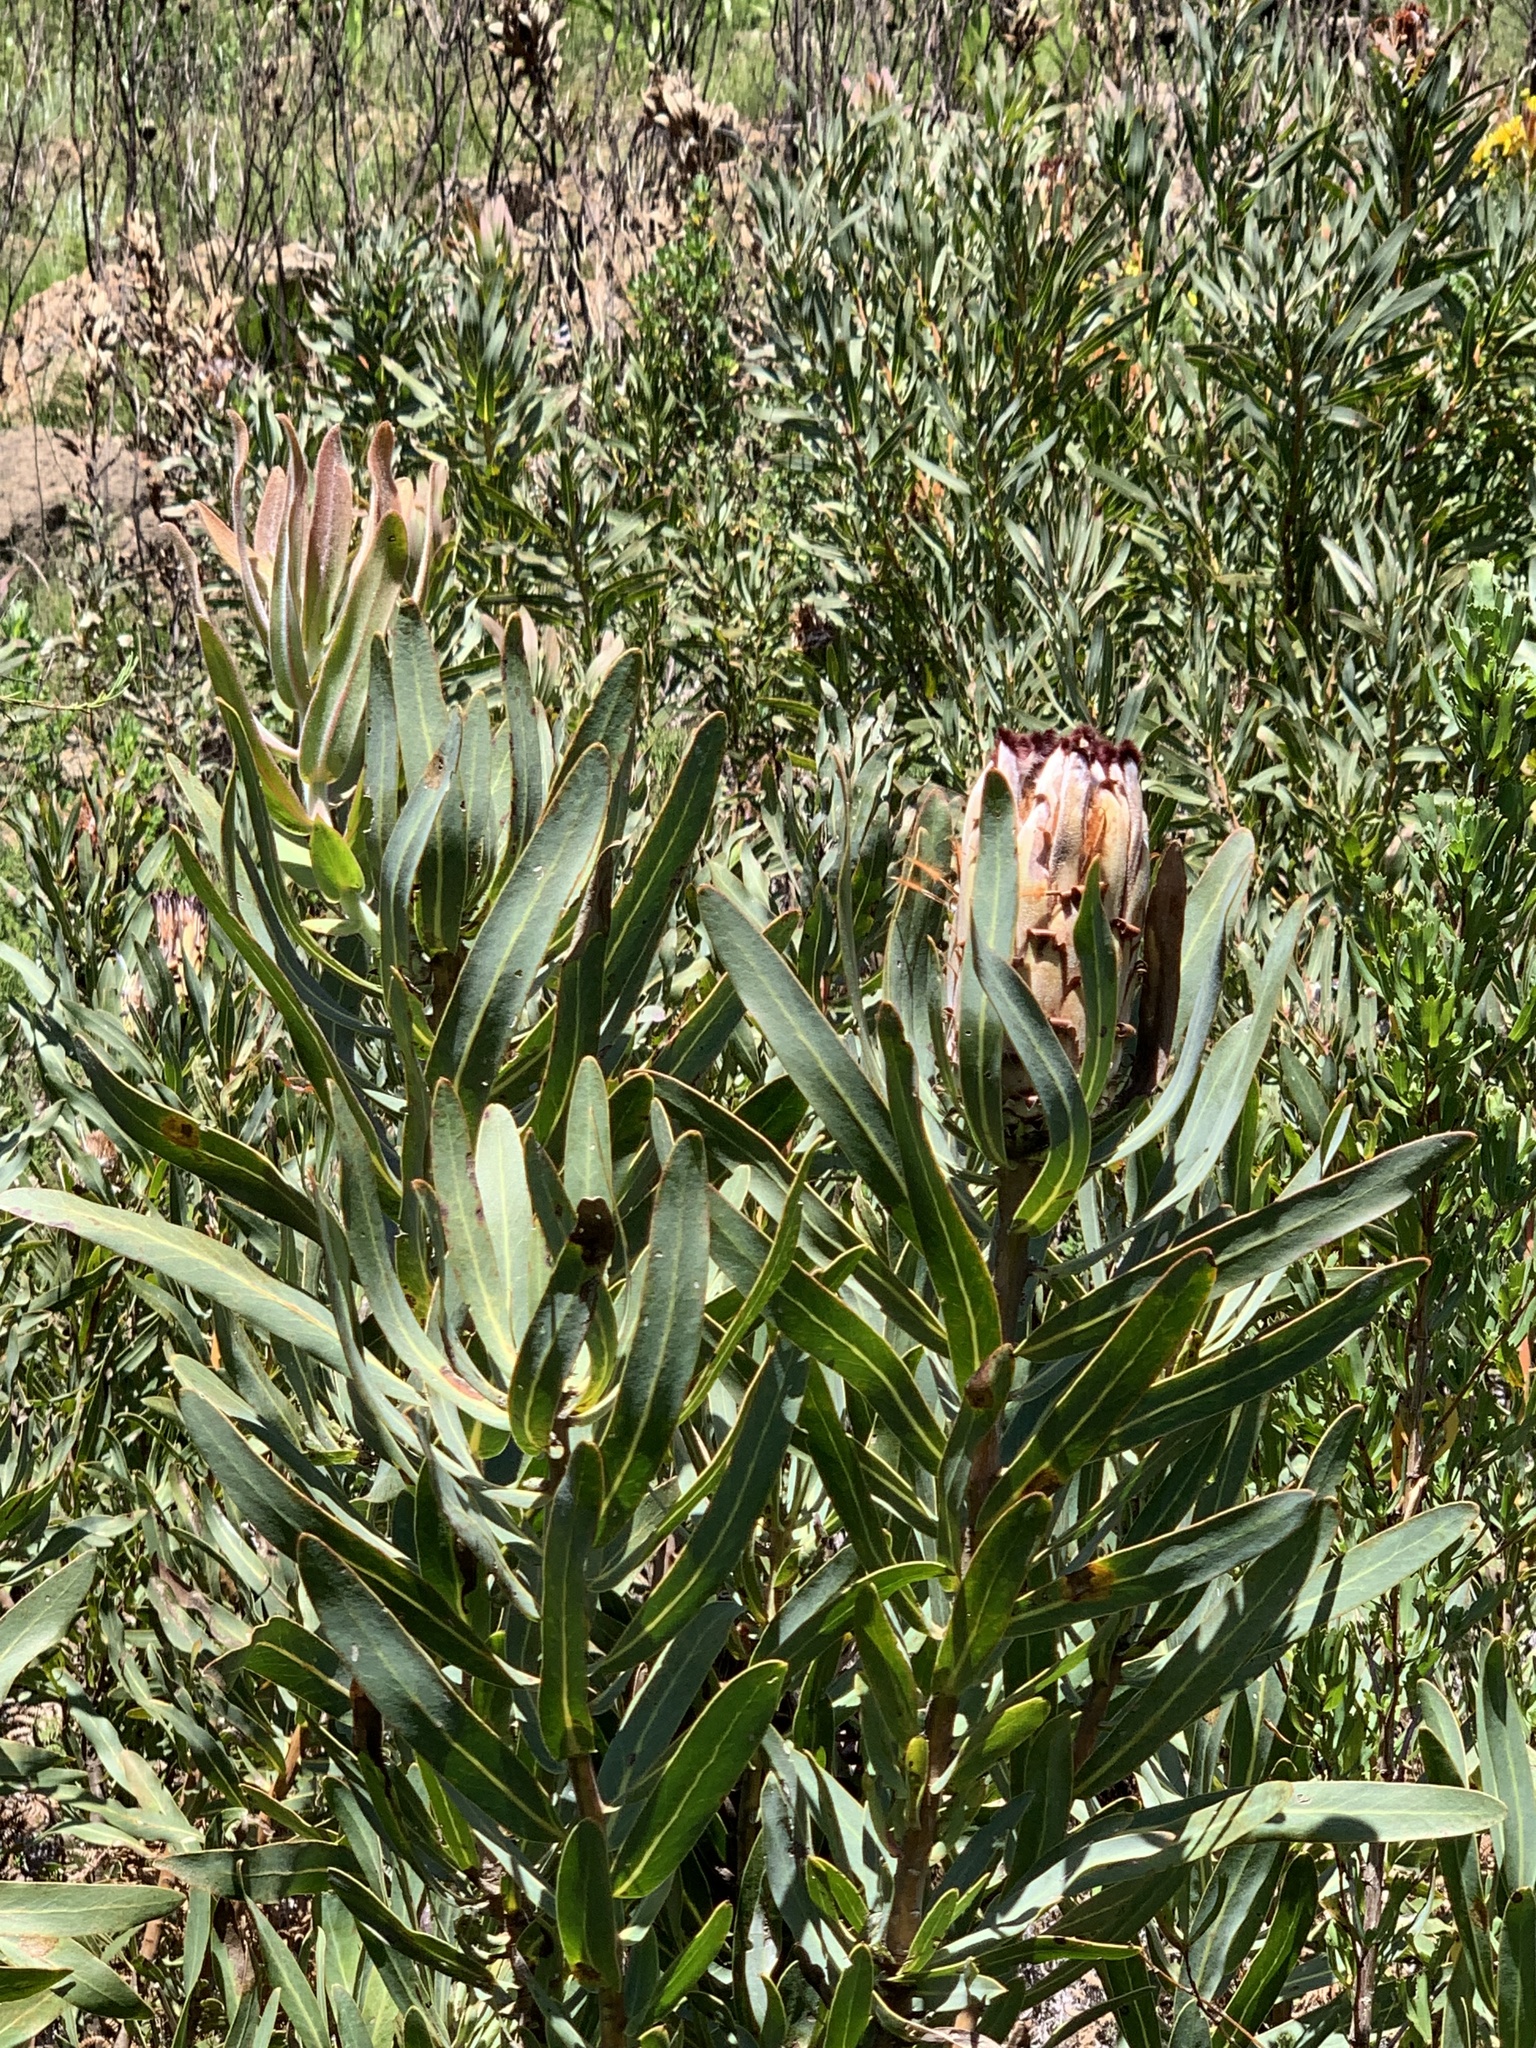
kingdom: Plantae
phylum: Tracheophyta
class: Magnoliopsida
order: Proteales
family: Proteaceae
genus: Protea
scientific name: Protea neriifolia
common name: Blue sugarbush
